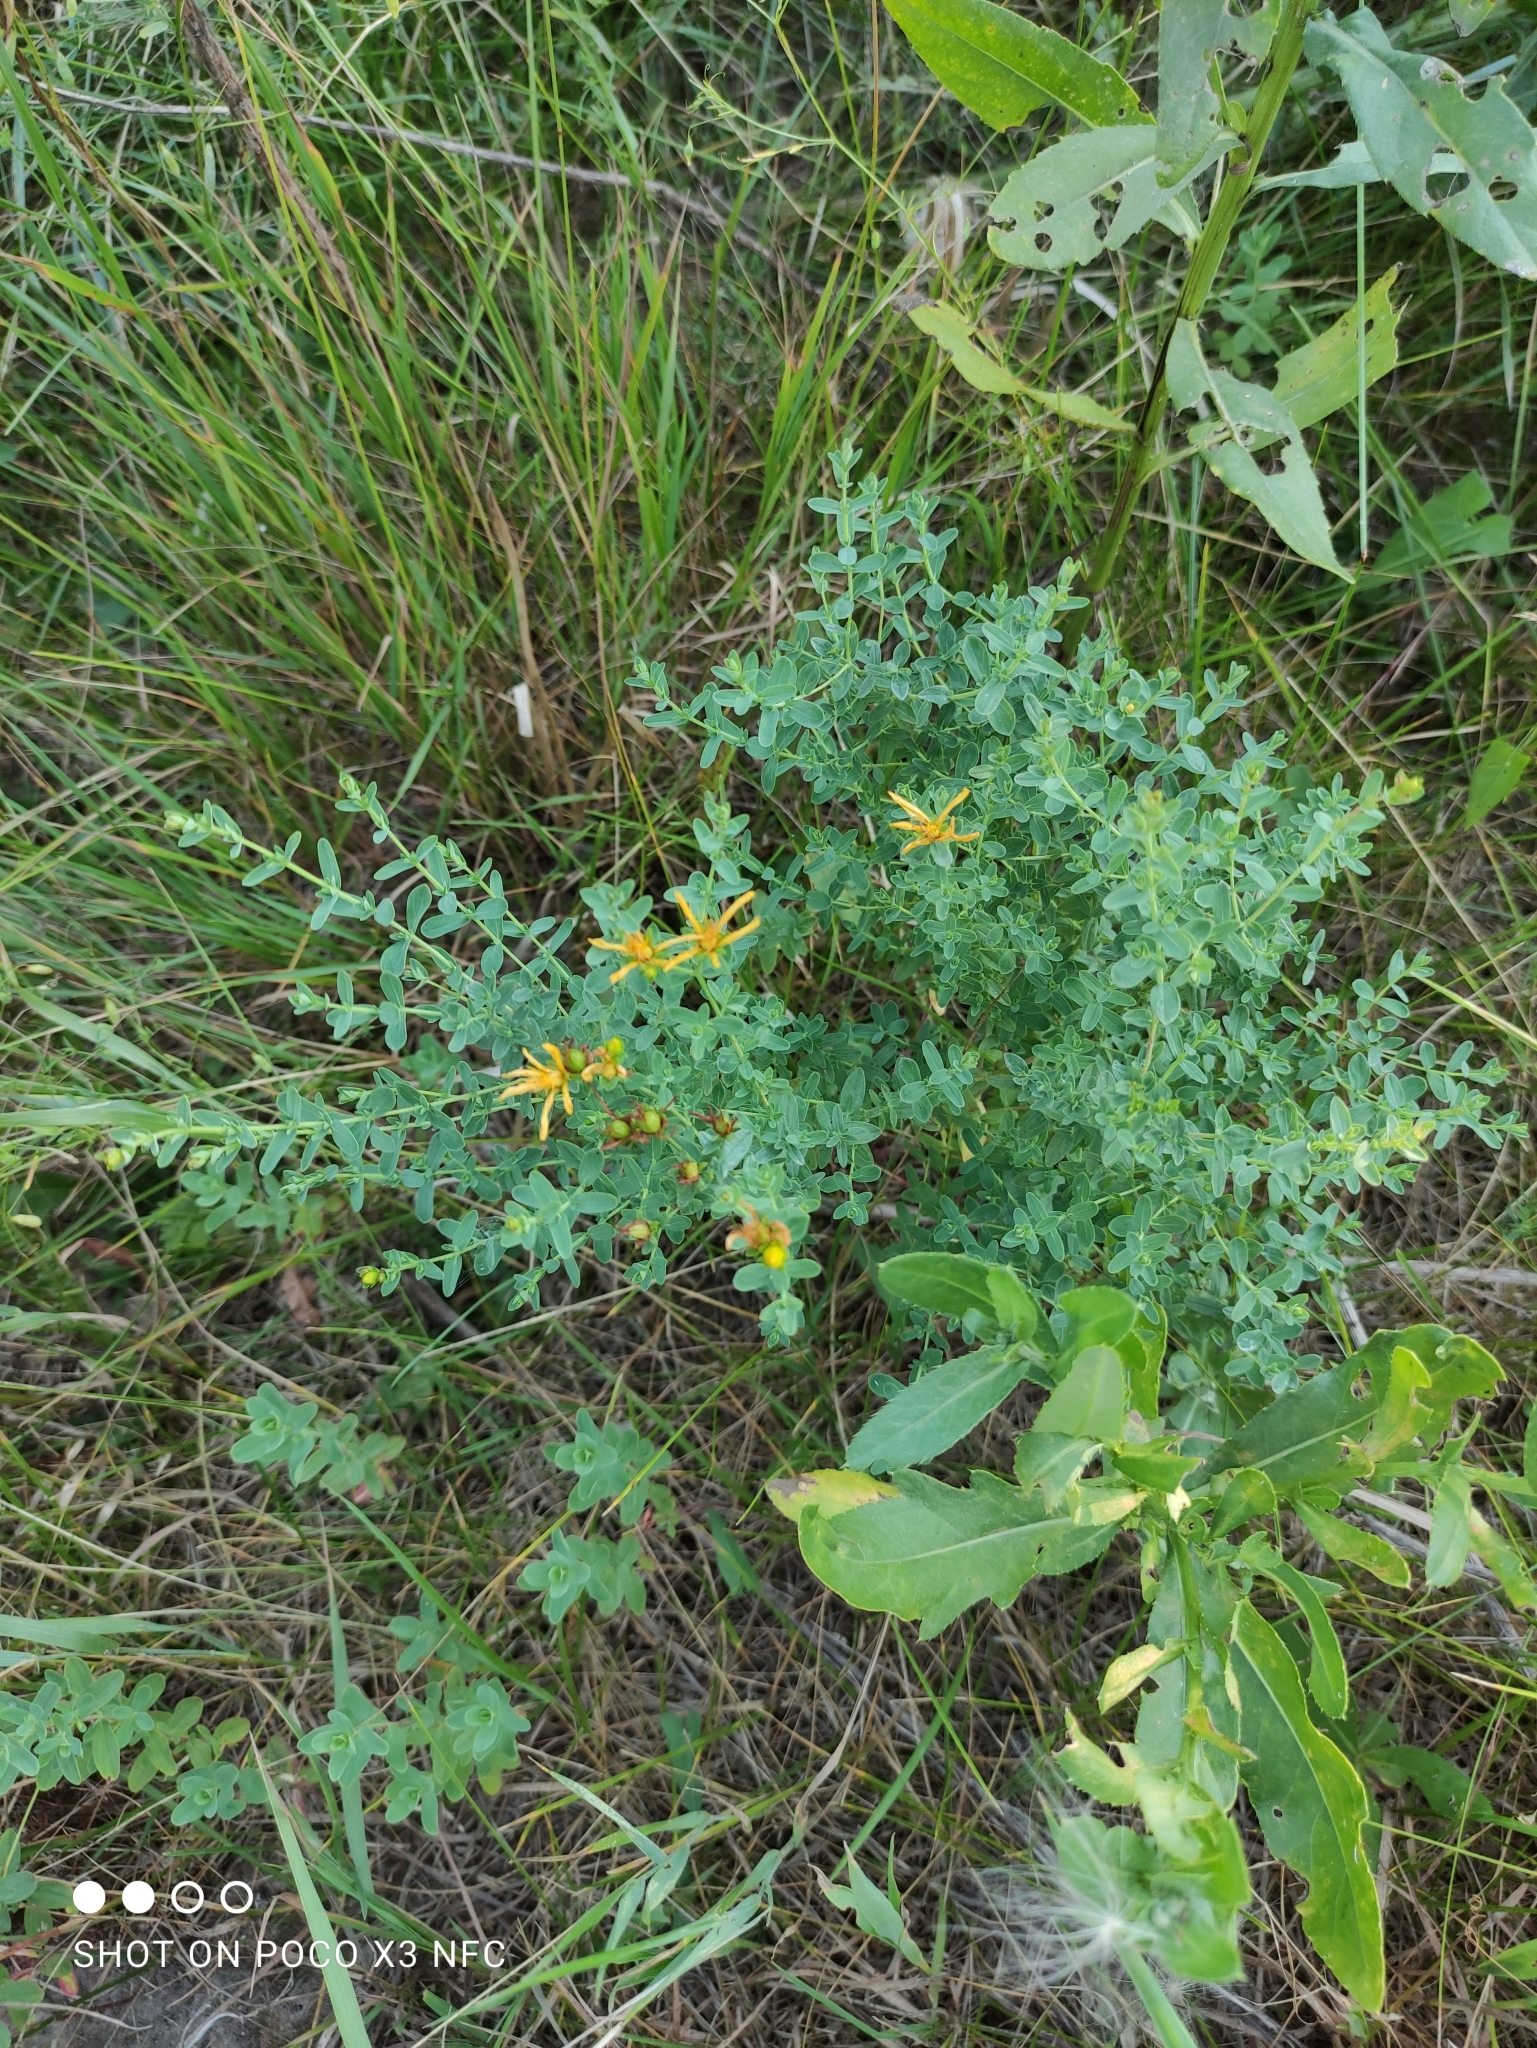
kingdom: Plantae
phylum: Tracheophyta
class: Magnoliopsida
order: Malpighiales
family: Hypericaceae
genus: Hypericum
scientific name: Hypericum perforatum
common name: Common st. johnswort
